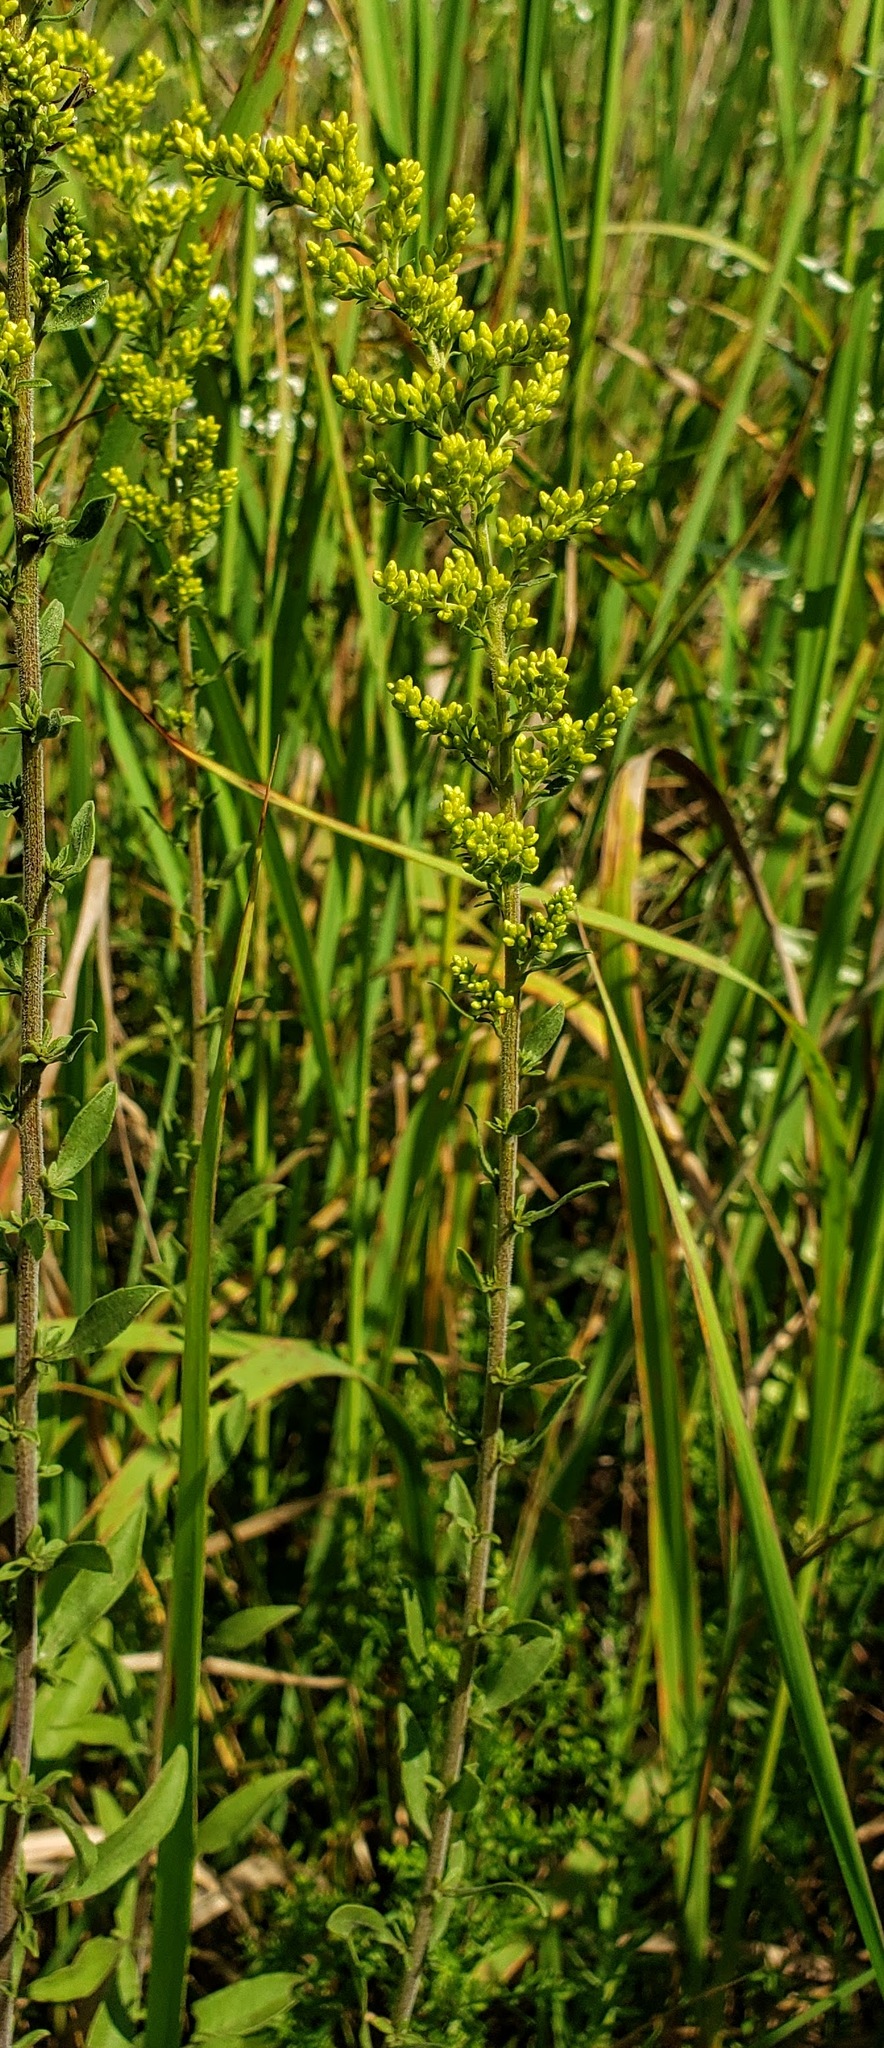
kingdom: Plantae
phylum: Tracheophyta
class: Magnoliopsida
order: Asterales
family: Asteraceae
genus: Solidago
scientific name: Solidago nemoralis
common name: Grey goldenrod
